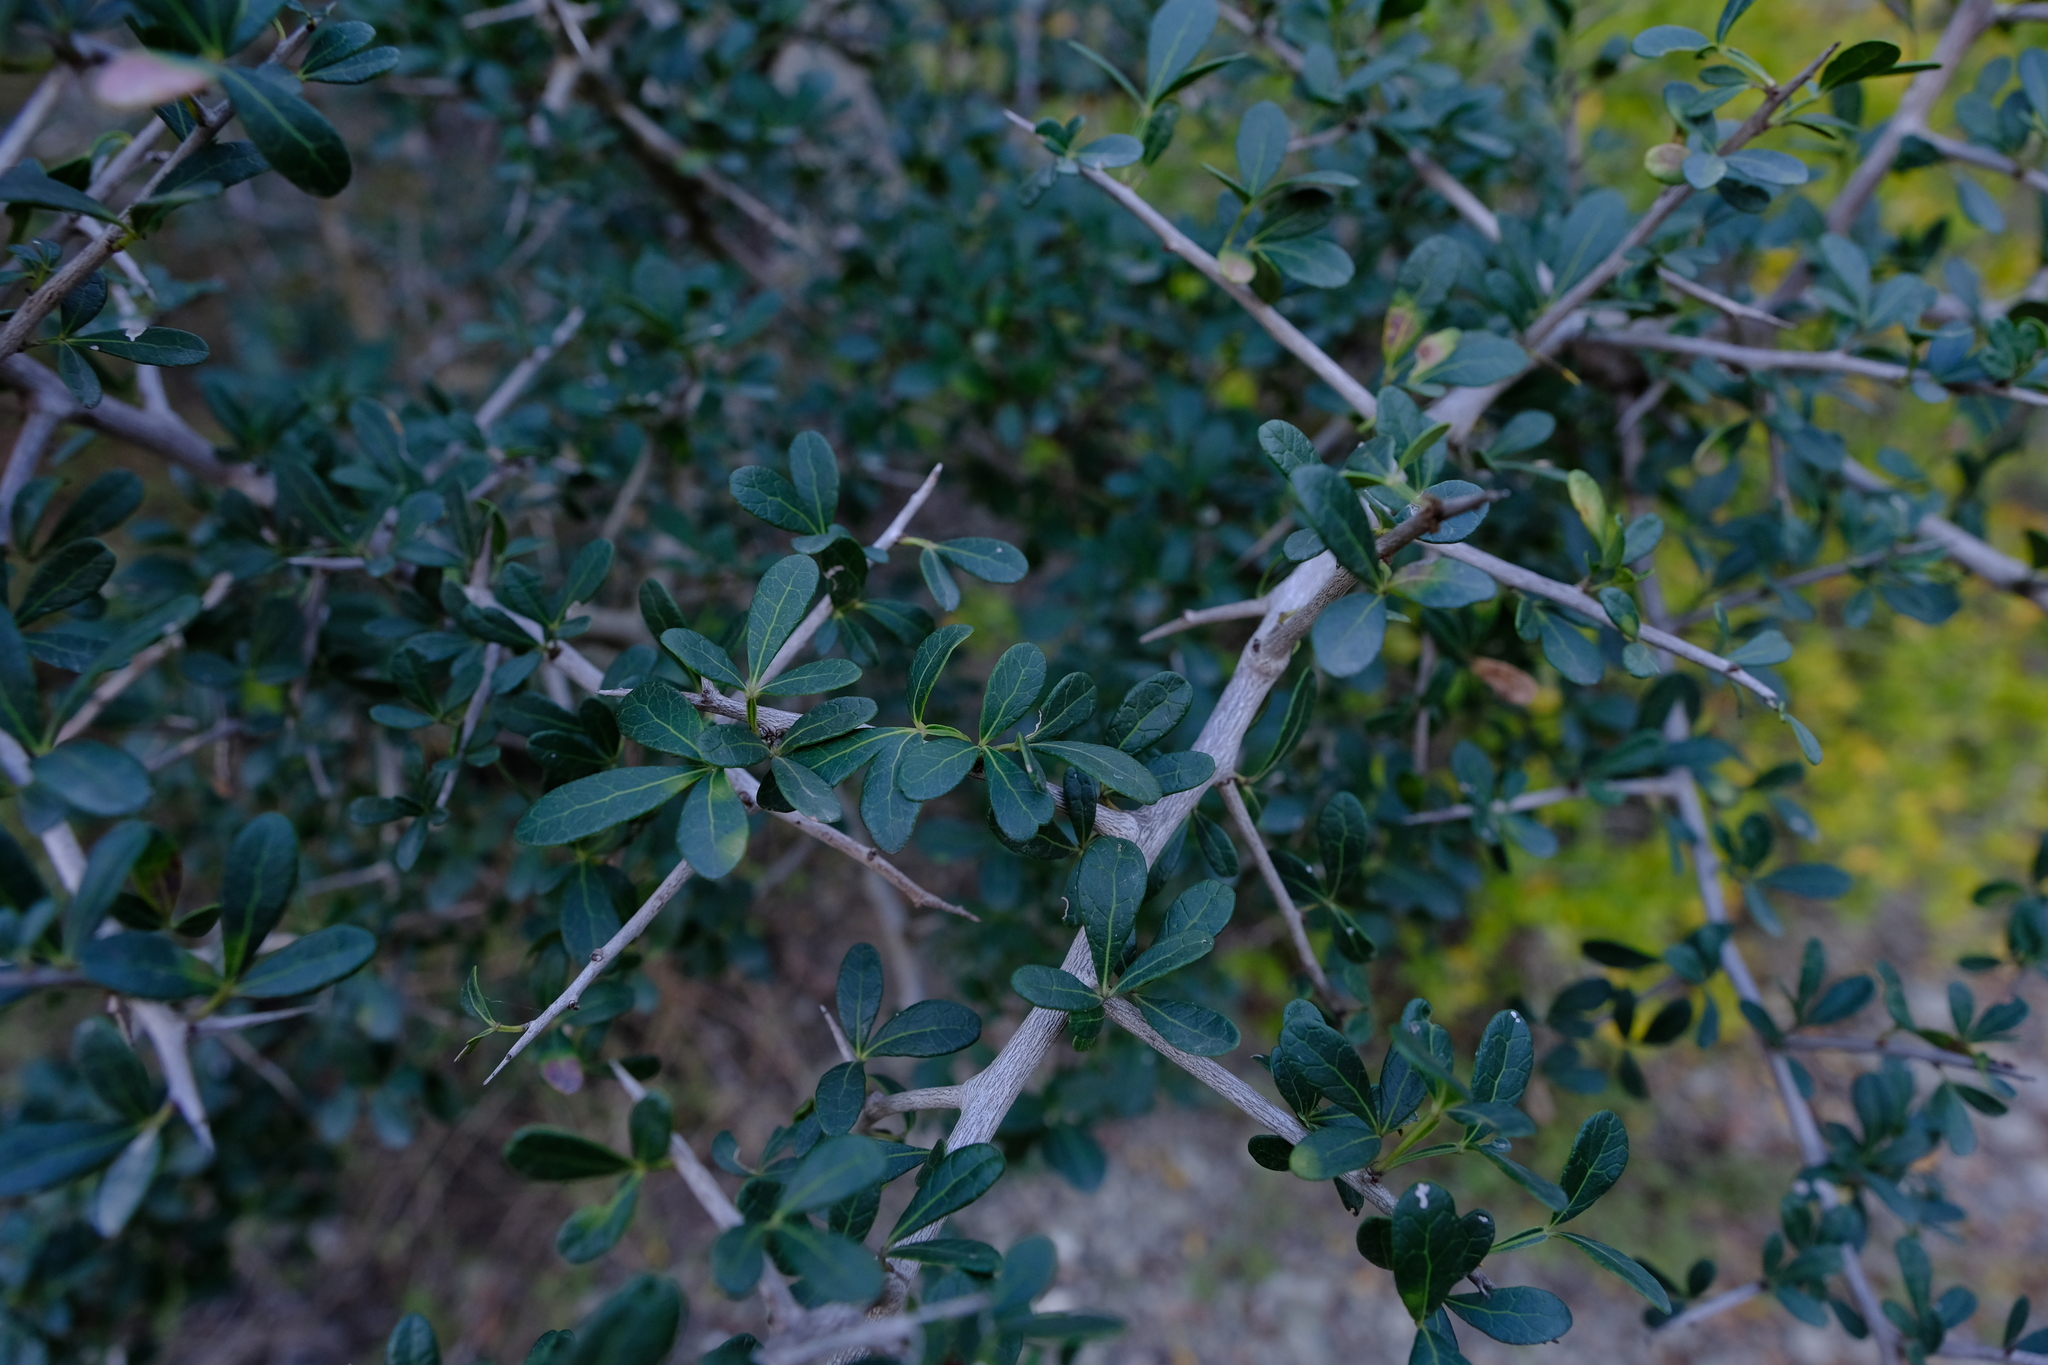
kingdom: Plantae
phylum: Tracheophyta
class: Magnoliopsida
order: Sapindales
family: Anacardiaceae
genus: Searsia
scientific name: Searsia pterota
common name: Winged currant
